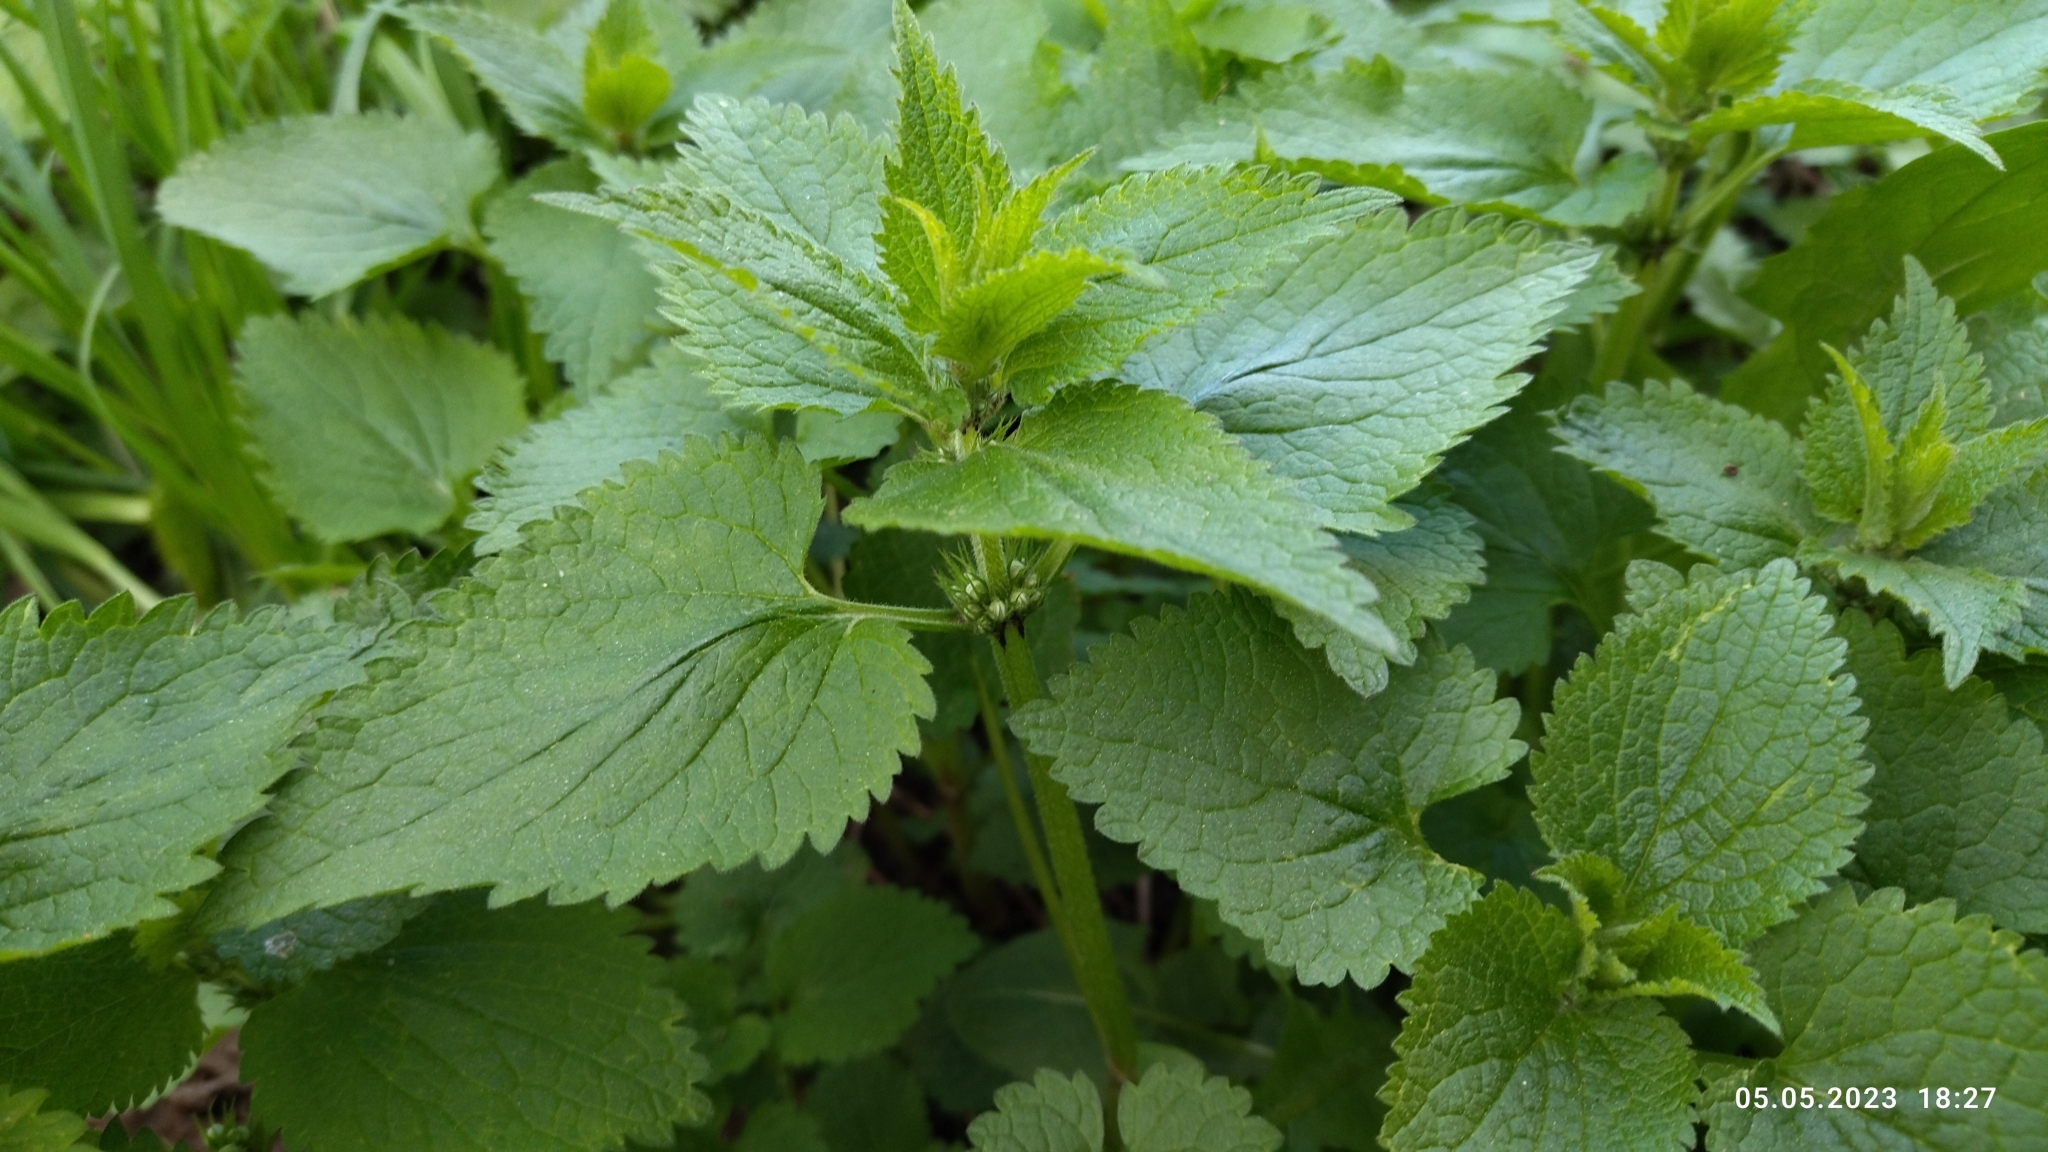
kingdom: Plantae
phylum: Tracheophyta
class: Magnoliopsida
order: Lamiales
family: Lamiaceae
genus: Lamium
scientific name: Lamium album
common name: White dead-nettle
